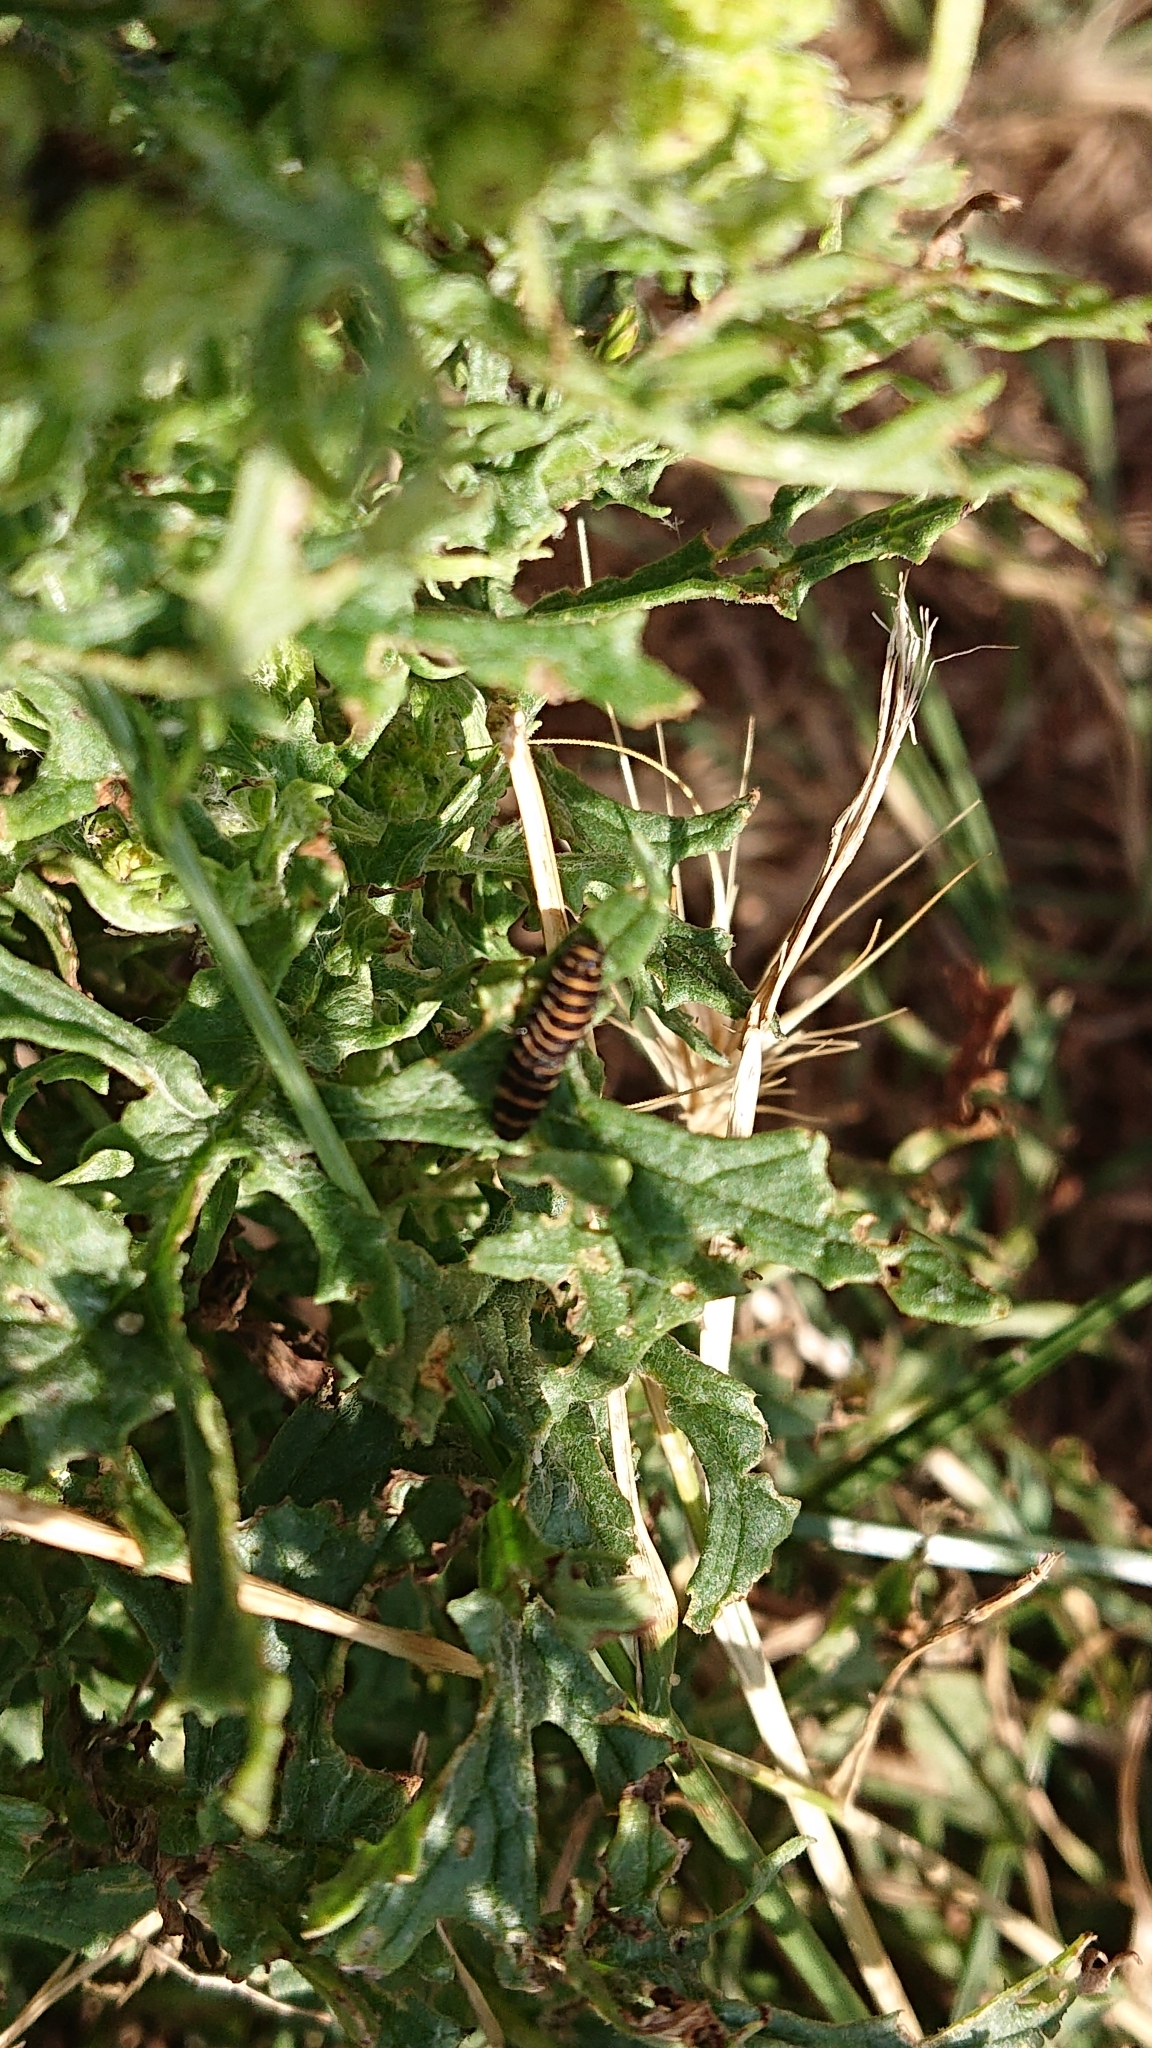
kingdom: Animalia
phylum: Arthropoda
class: Insecta
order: Lepidoptera
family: Erebidae
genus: Tyria
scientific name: Tyria jacobaeae
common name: Cinnabar
